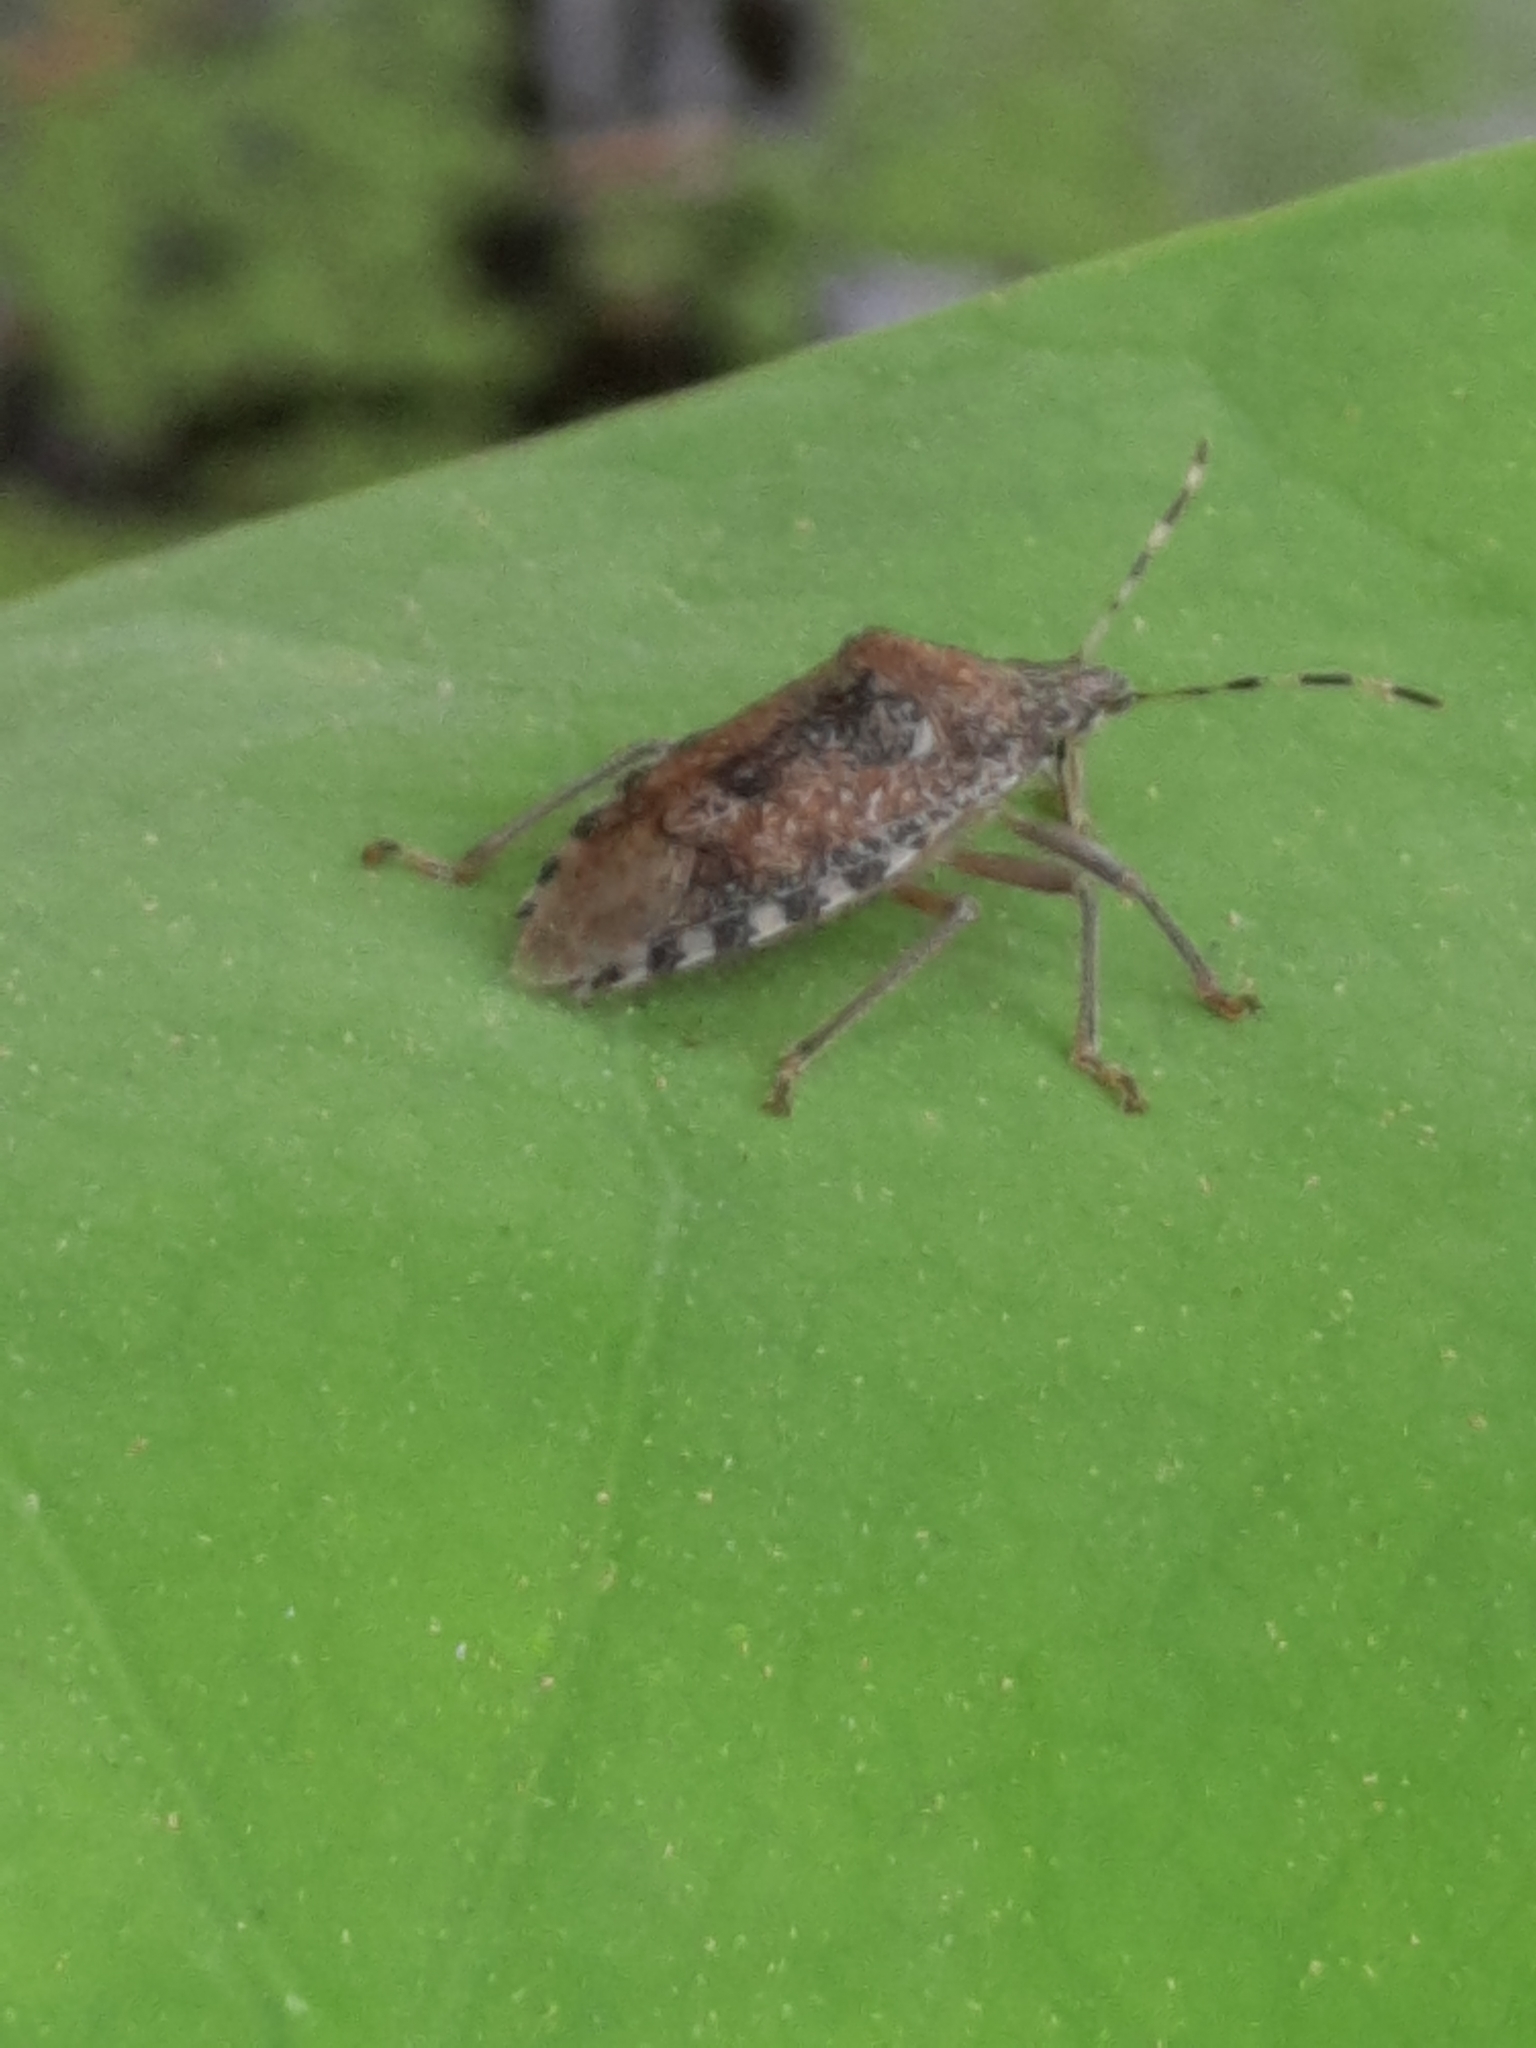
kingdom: Animalia
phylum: Arthropoda
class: Insecta
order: Hemiptera
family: Pentatomidae
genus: Rhaphigaster
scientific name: Rhaphigaster nebulosa
